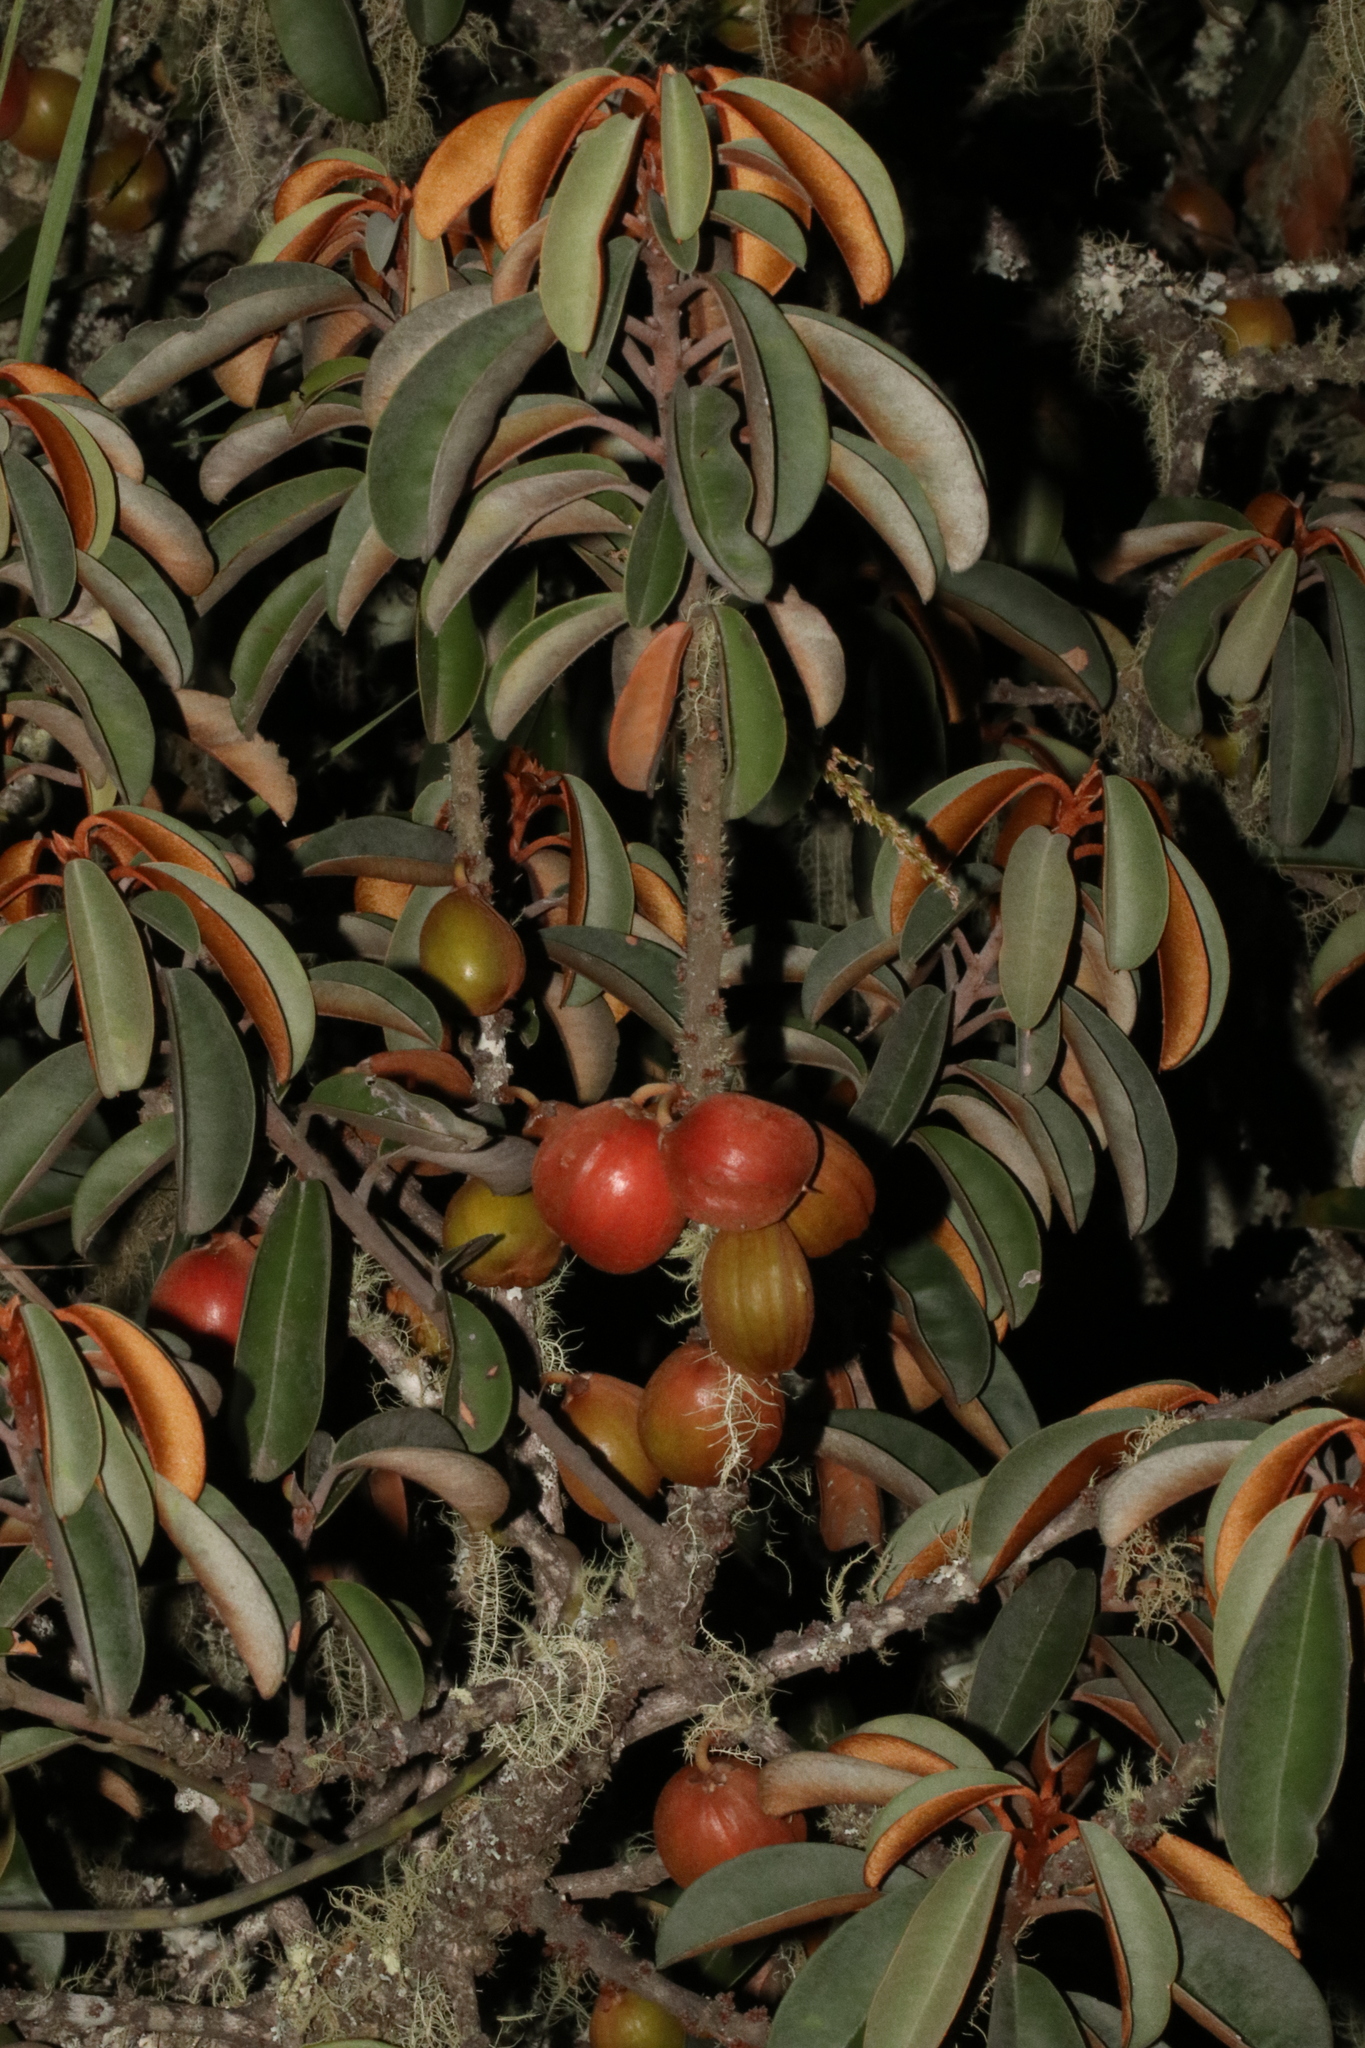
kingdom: Plantae
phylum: Tracheophyta
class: Magnoliopsida
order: Ericales
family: Sapotaceae
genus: Englerophytum
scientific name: Englerophytum magalismontanum
